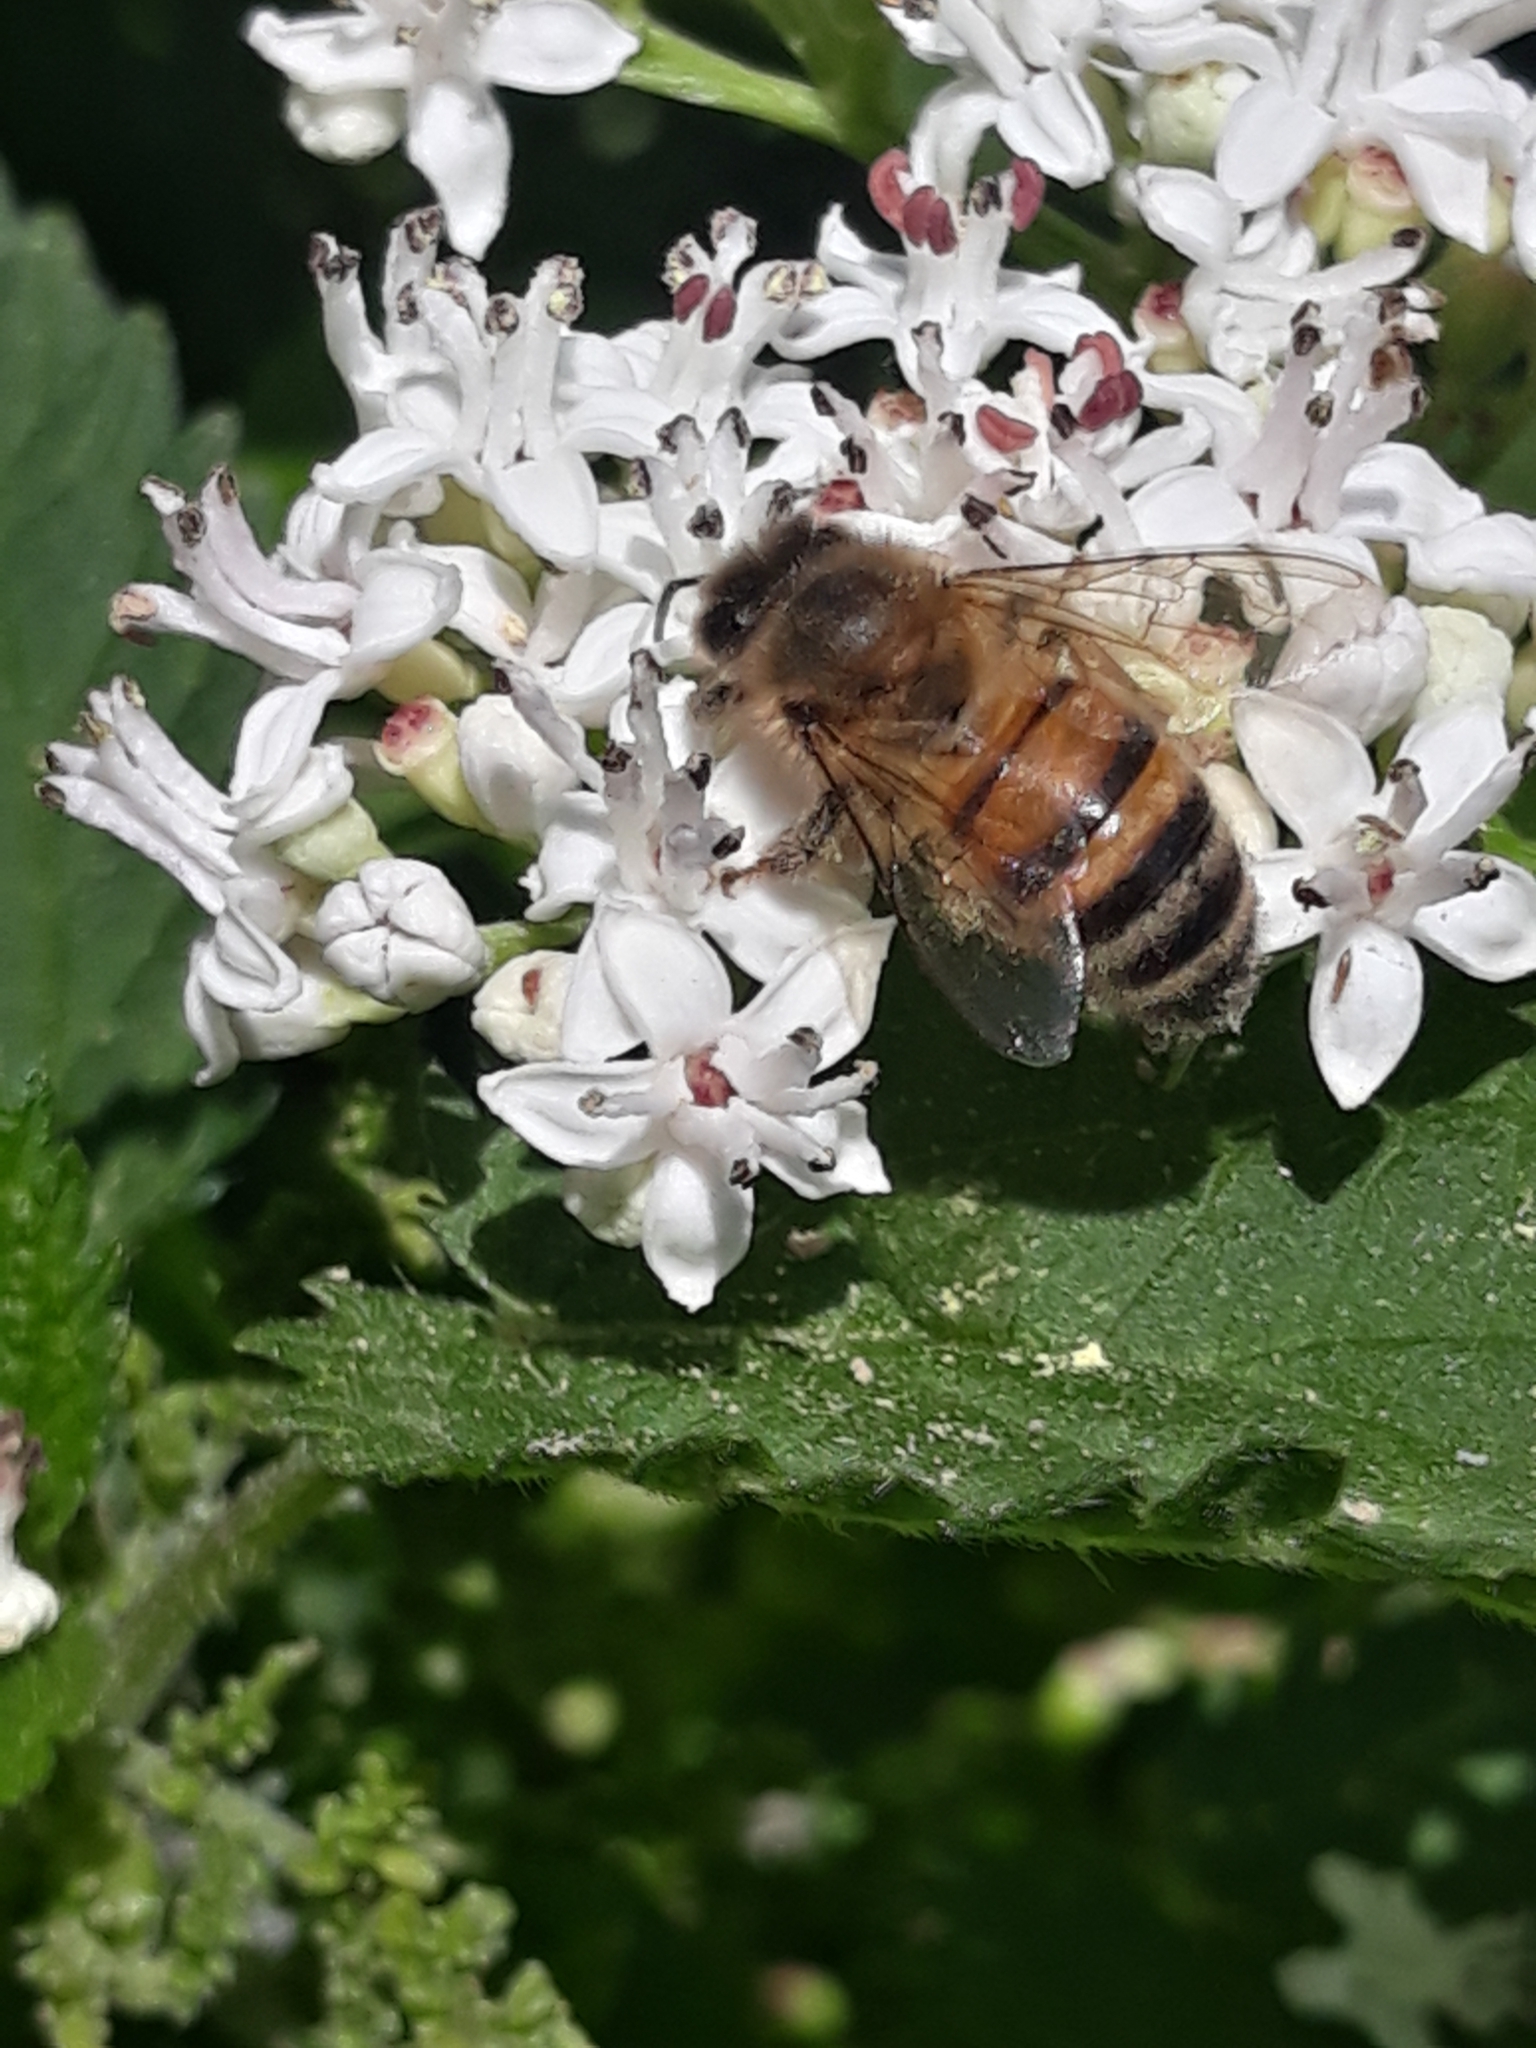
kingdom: Animalia
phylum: Arthropoda
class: Insecta
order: Hymenoptera
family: Apidae
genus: Apis
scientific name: Apis mellifera
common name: Honey bee
